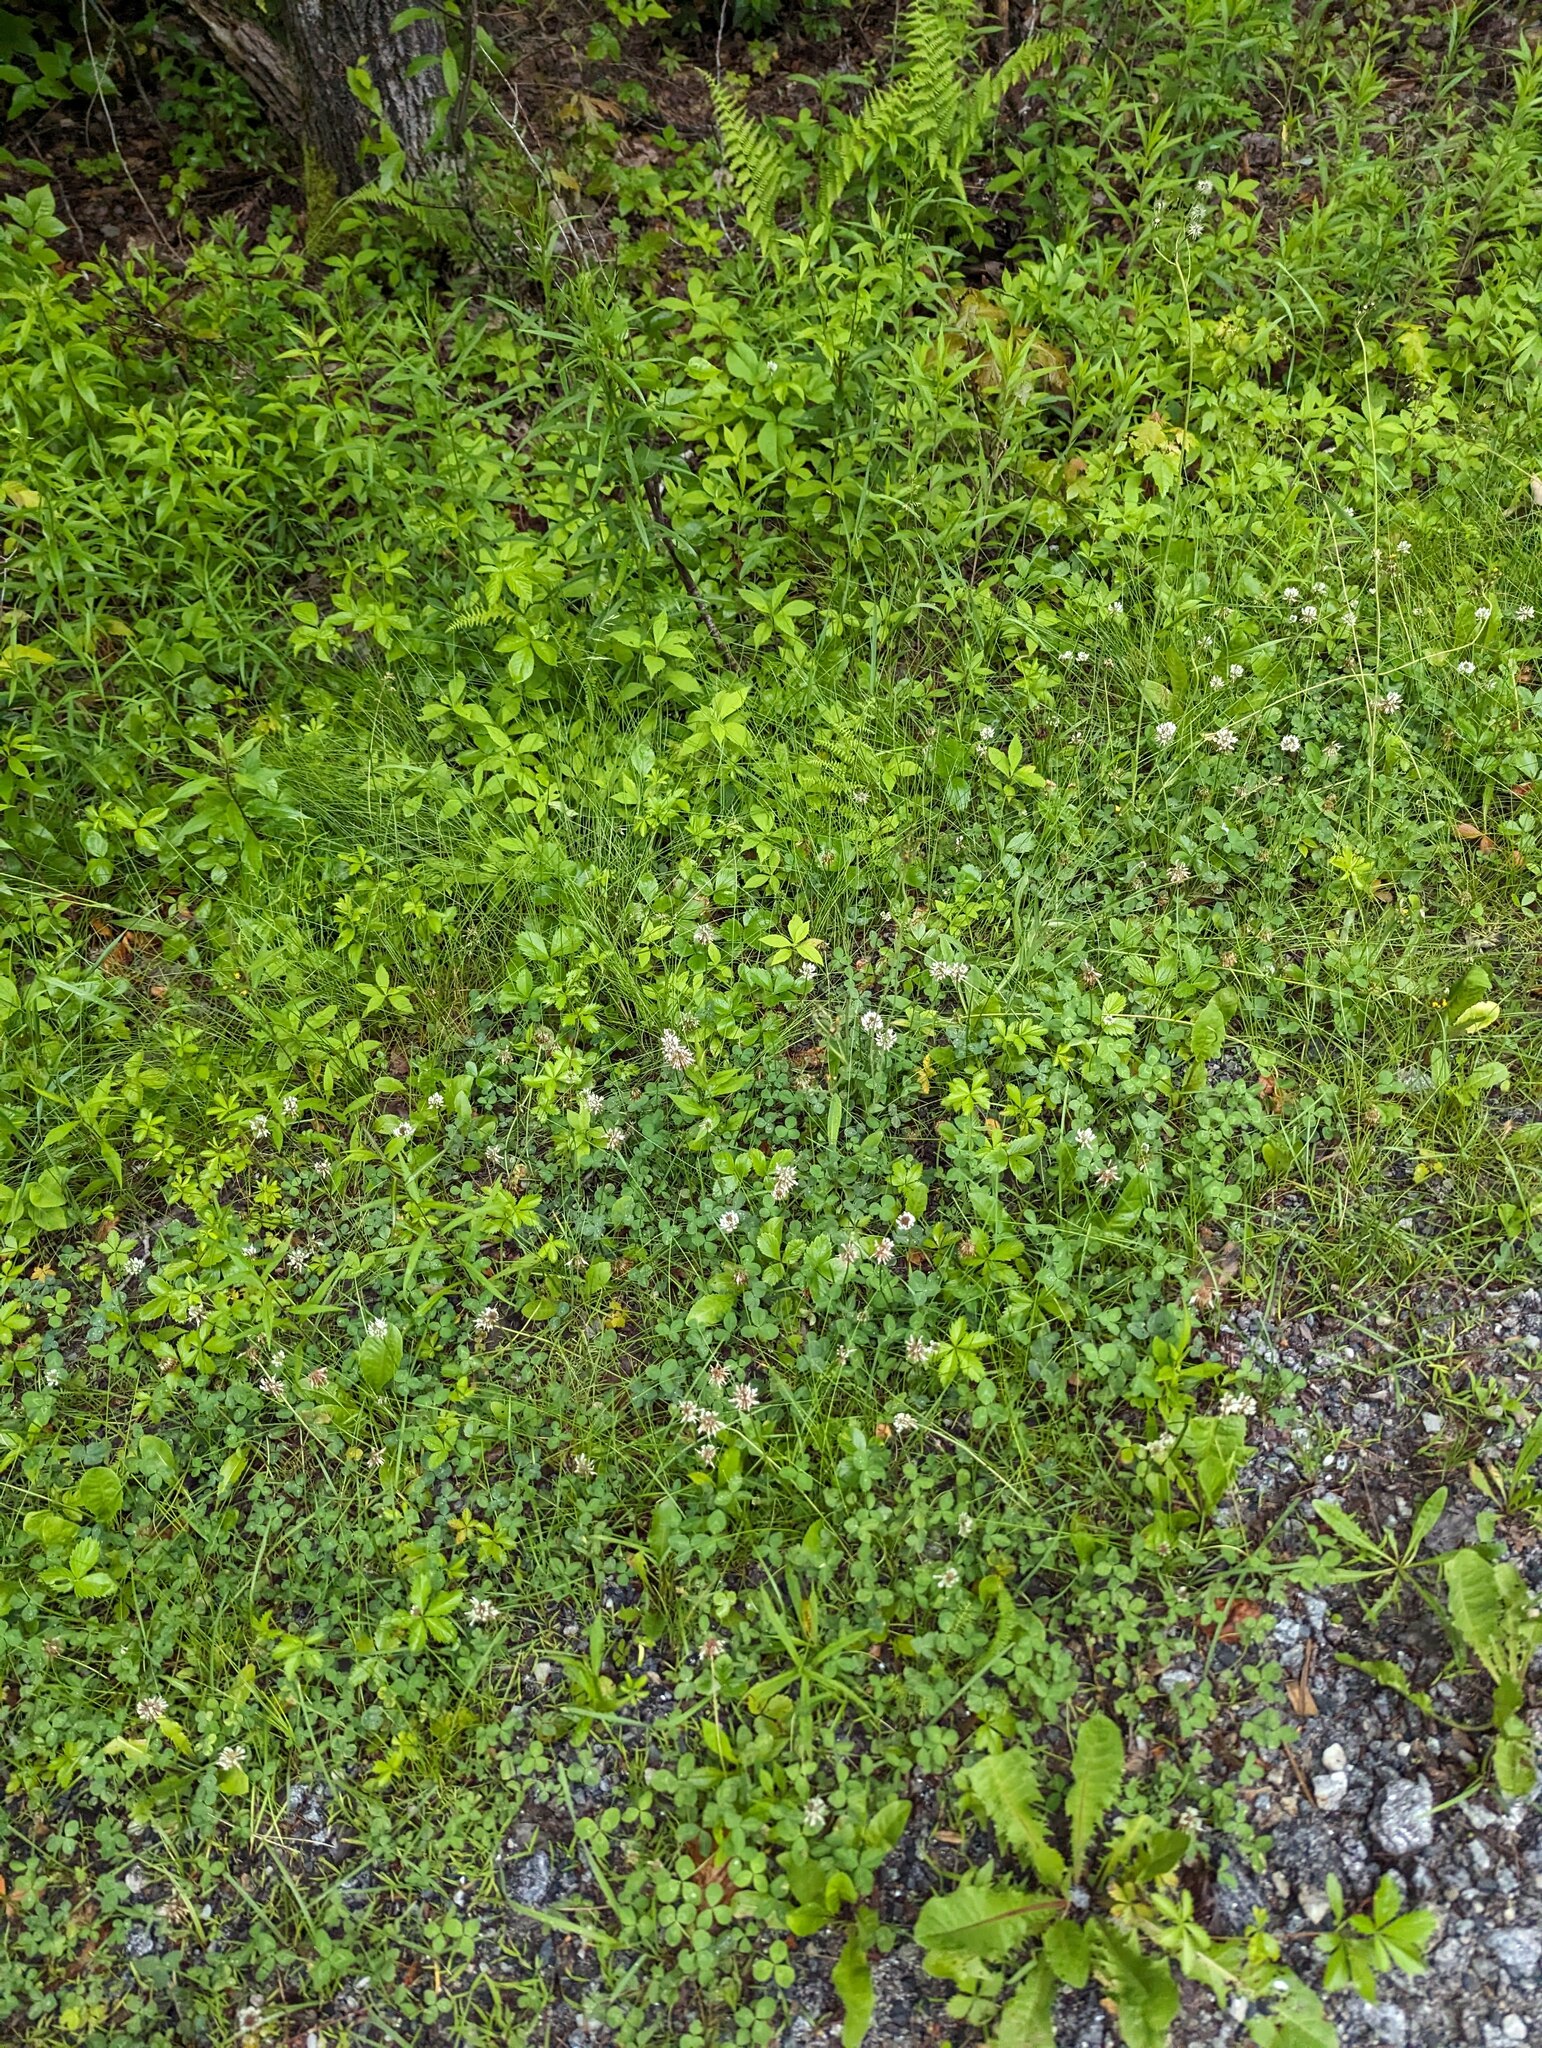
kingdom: Plantae
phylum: Tracheophyta
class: Magnoliopsida
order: Fabales
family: Fabaceae
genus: Trifolium
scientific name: Trifolium repens
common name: White clover
